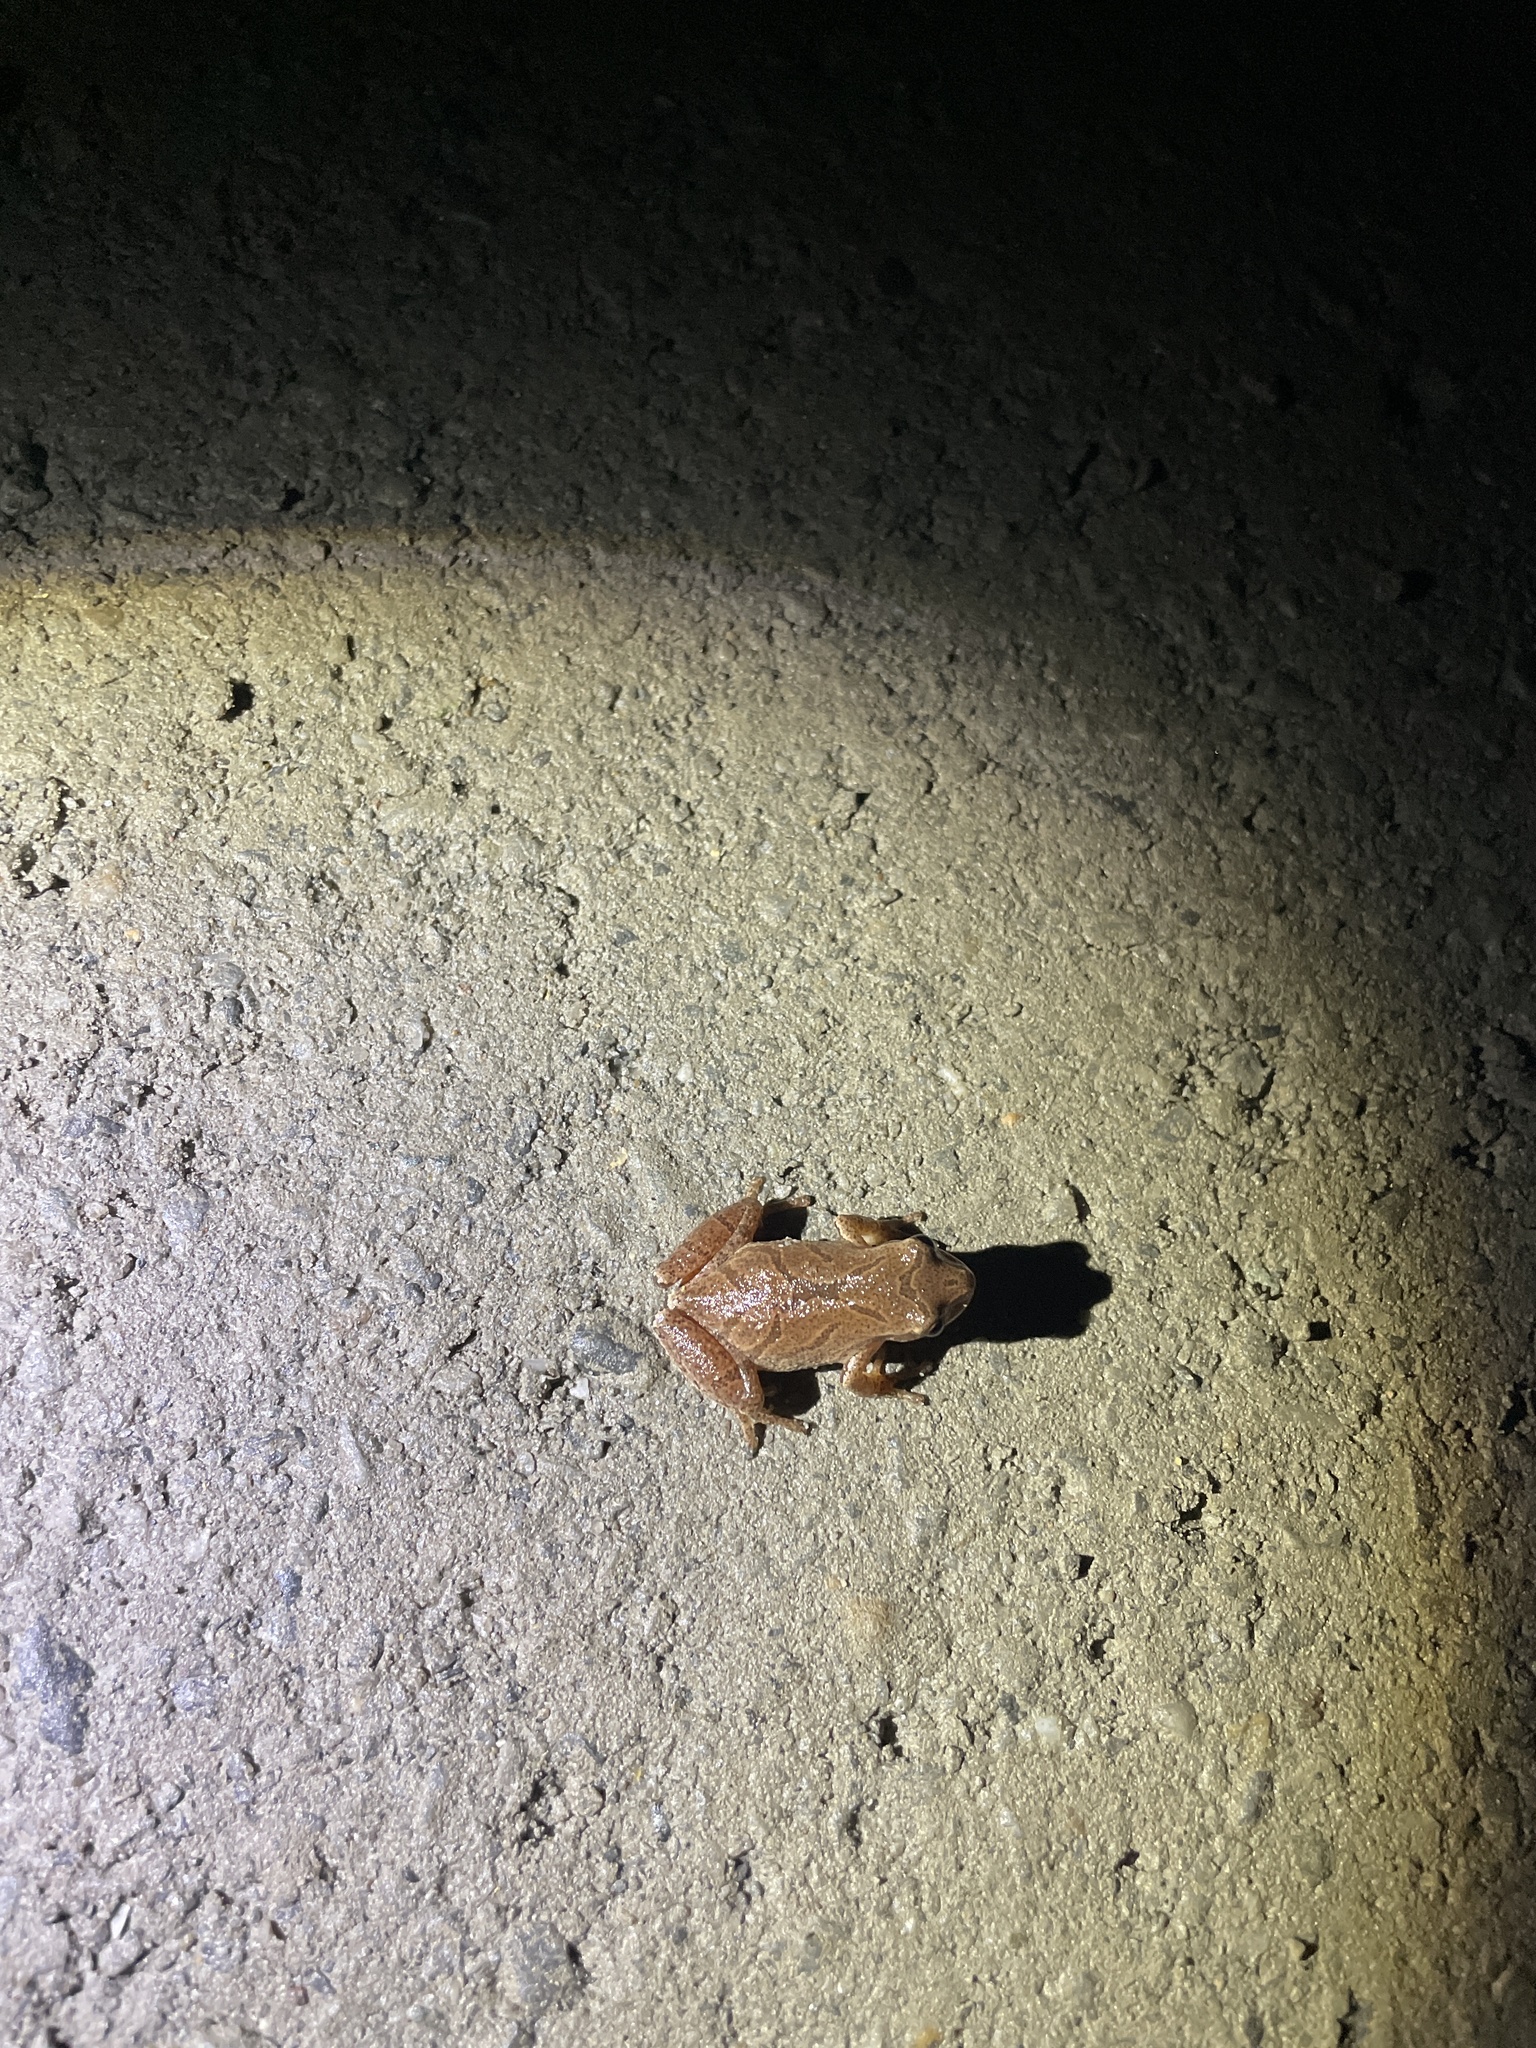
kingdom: Animalia
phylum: Chordata
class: Amphibia
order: Anura
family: Hylidae
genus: Pseudacris
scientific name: Pseudacris crucifer
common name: Spring peeper
